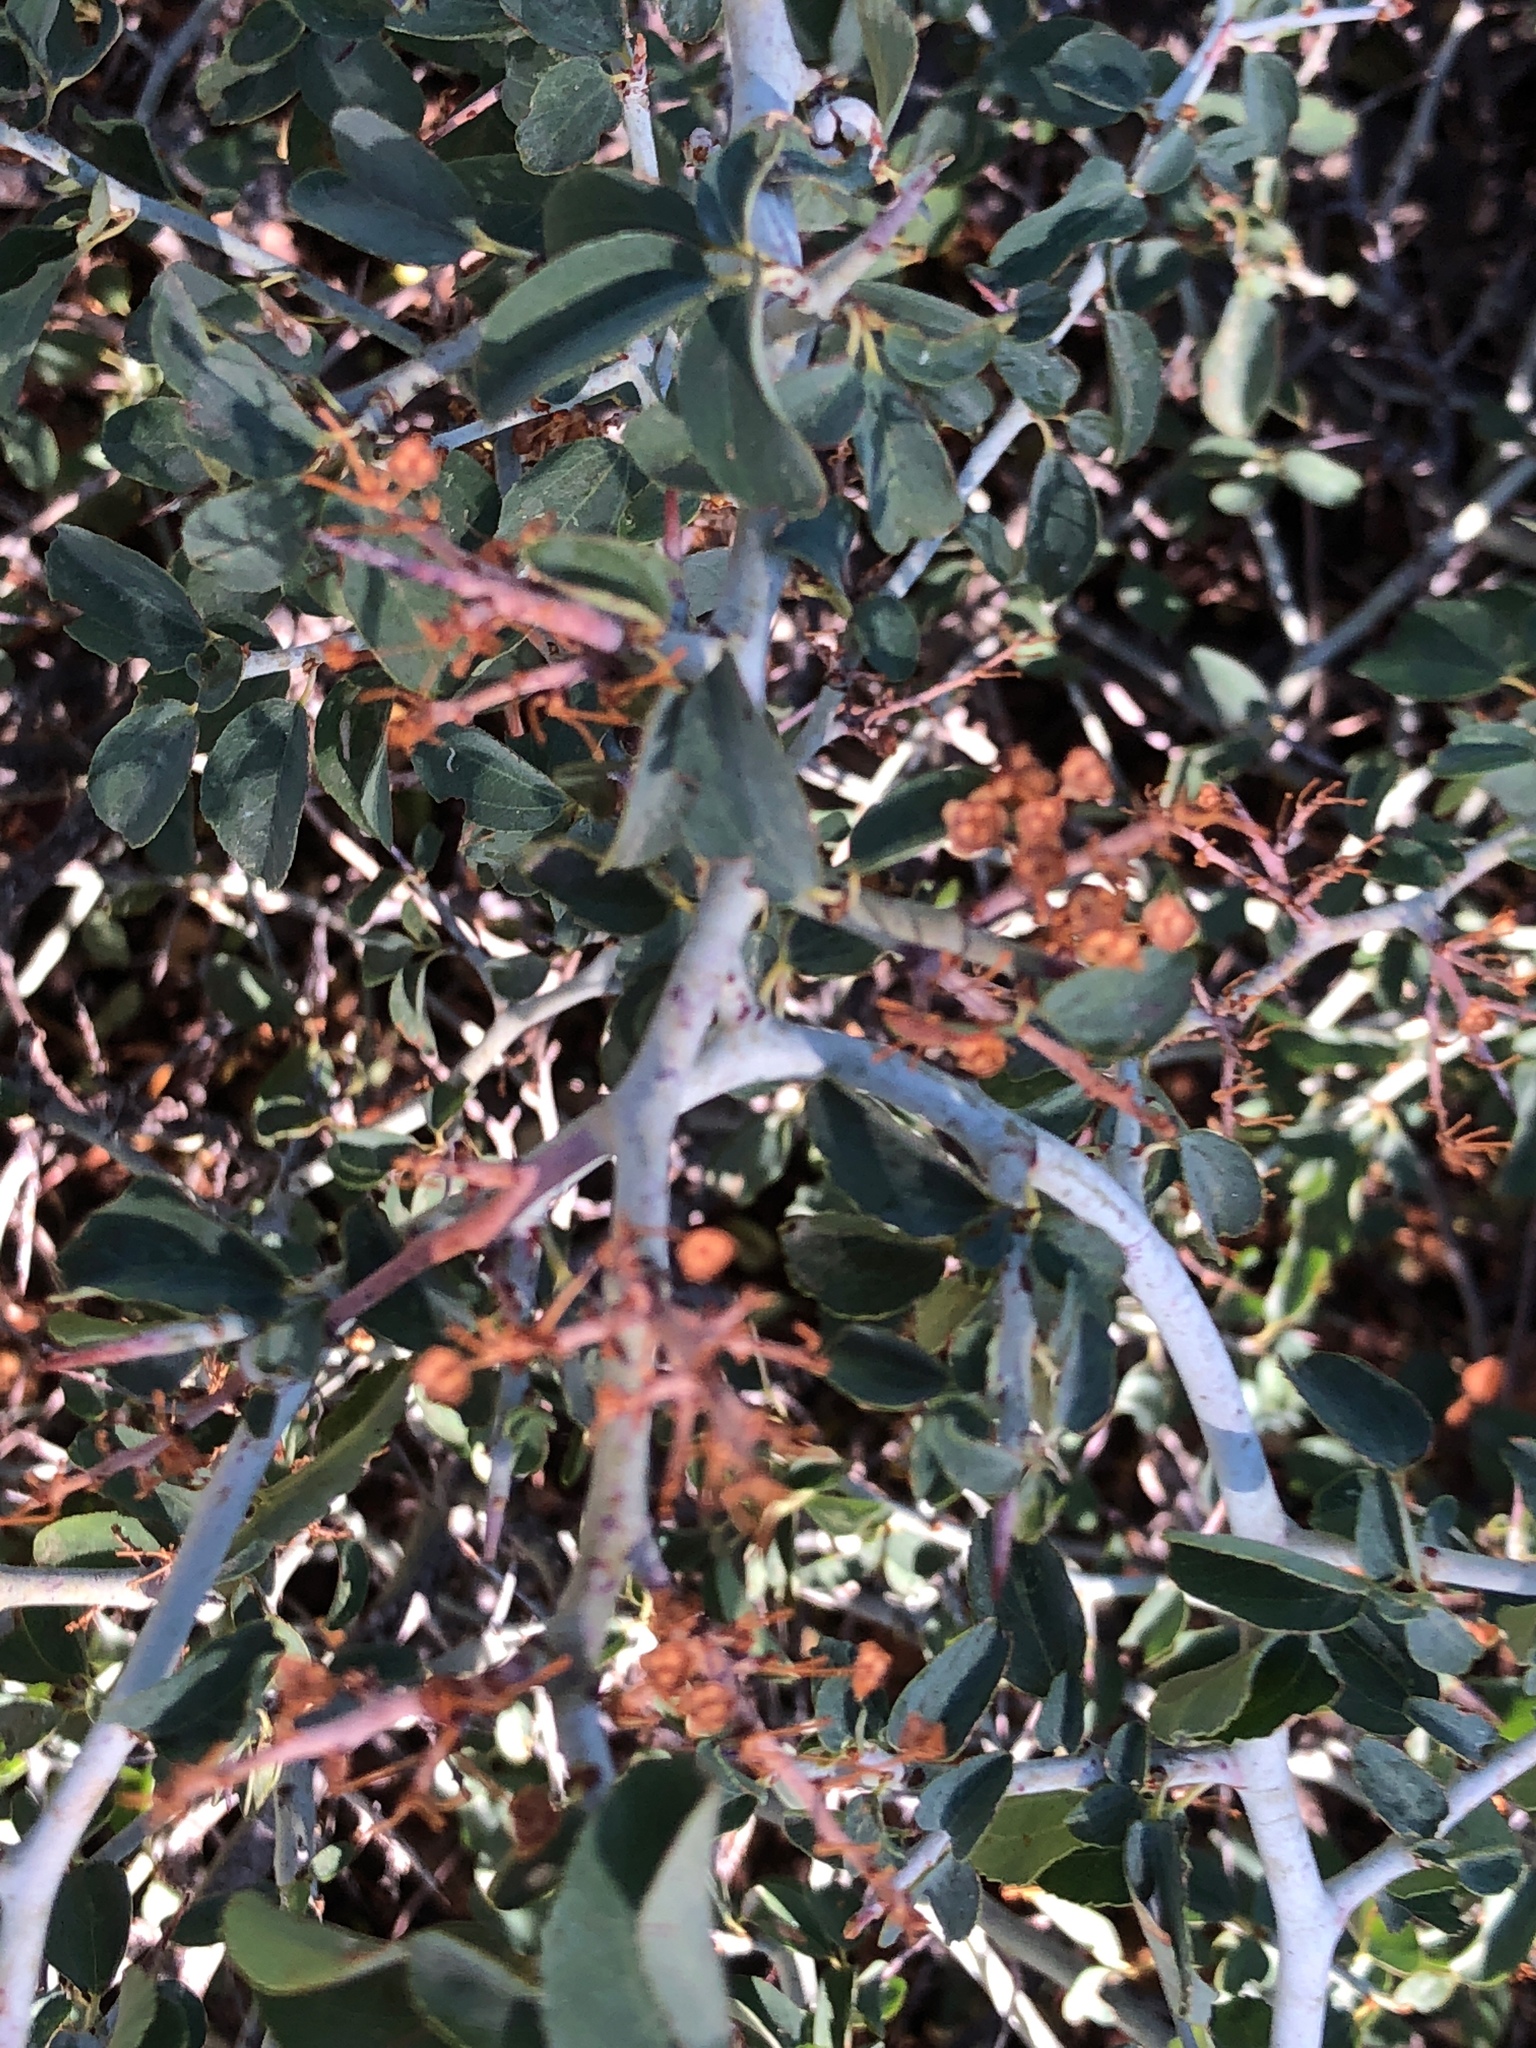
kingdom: Plantae
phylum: Tracheophyta
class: Magnoliopsida
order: Rosales
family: Rhamnaceae
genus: Ceanothus
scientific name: Ceanothus cordulatus
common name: Mountain whitethorn
